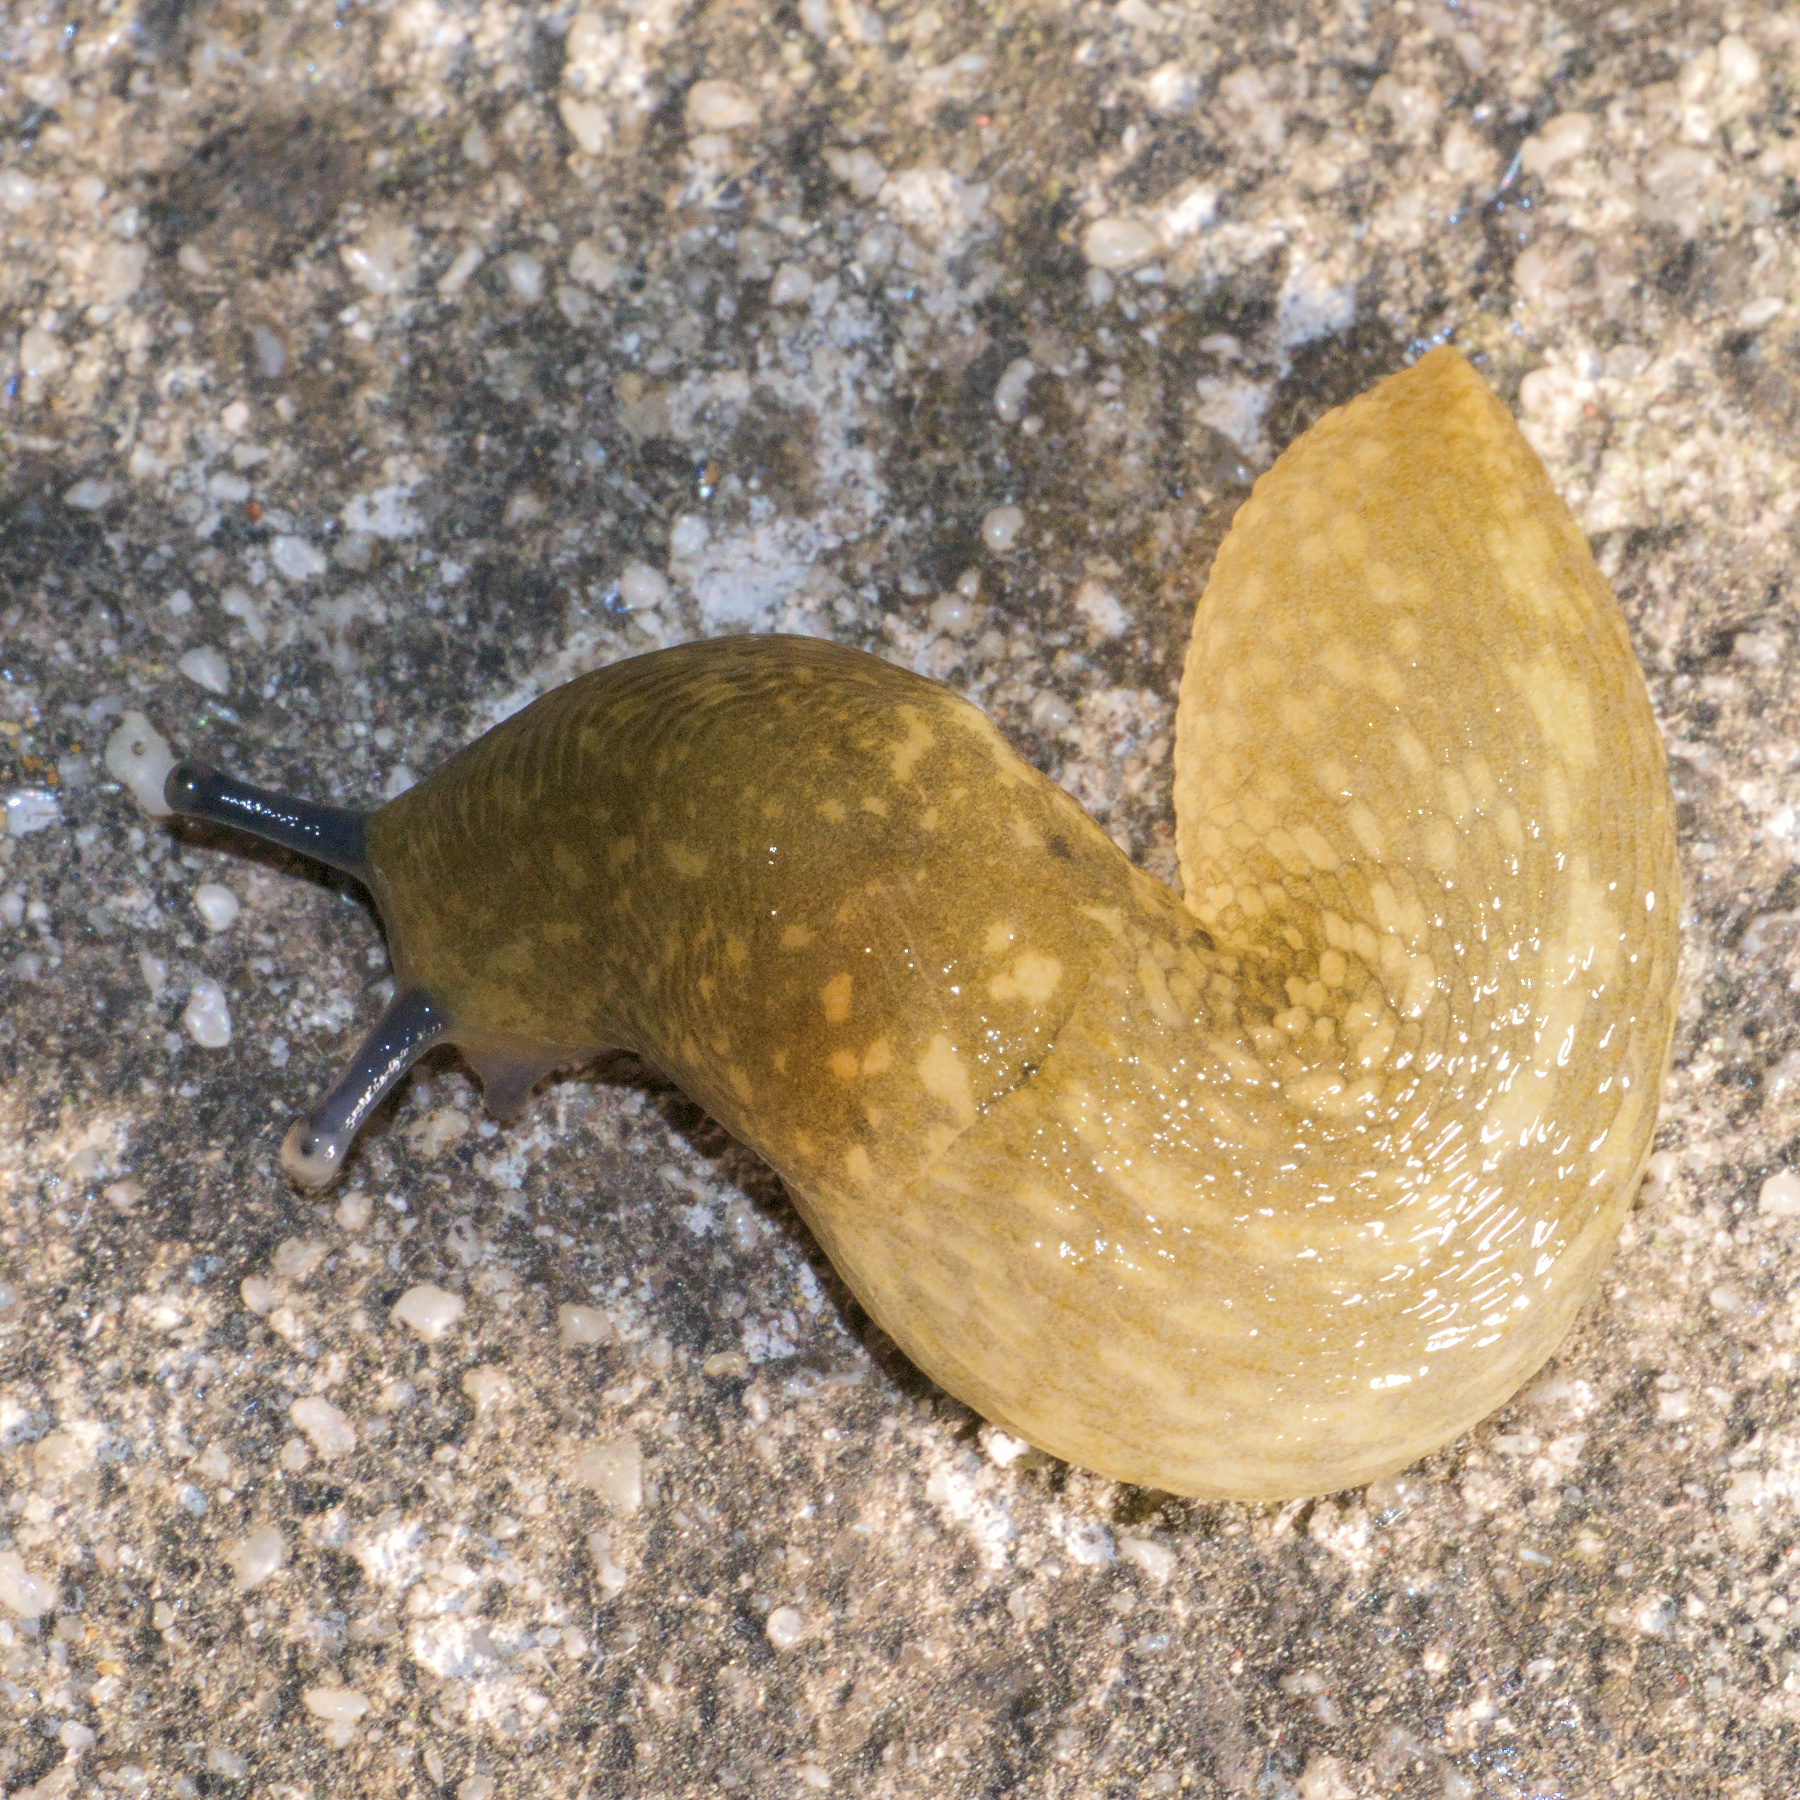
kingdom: Animalia
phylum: Mollusca
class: Gastropoda
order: Stylommatophora
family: Limacidae
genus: Limacus
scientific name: Limacus flavus
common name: Yellow gardenslug
